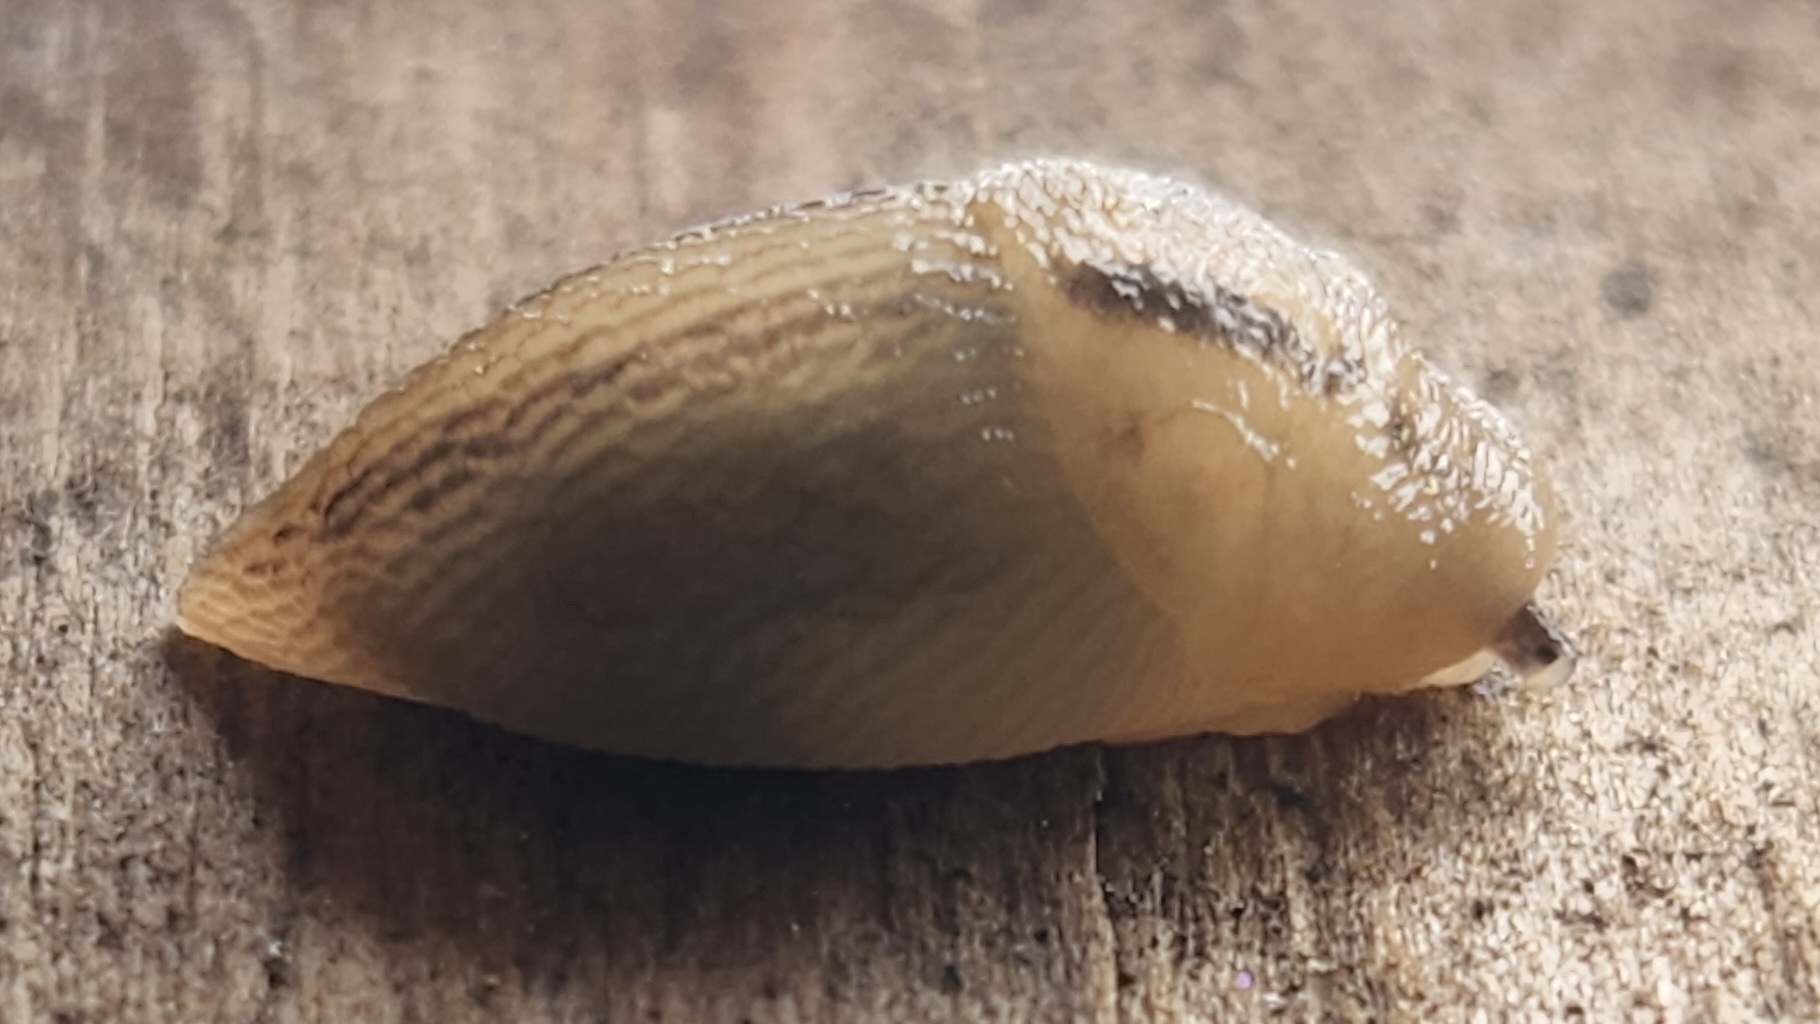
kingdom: Animalia
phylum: Mollusca
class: Gastropoda
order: Stylommatophora
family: Limacidae
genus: Ambigolimax
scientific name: Ambigolimax
